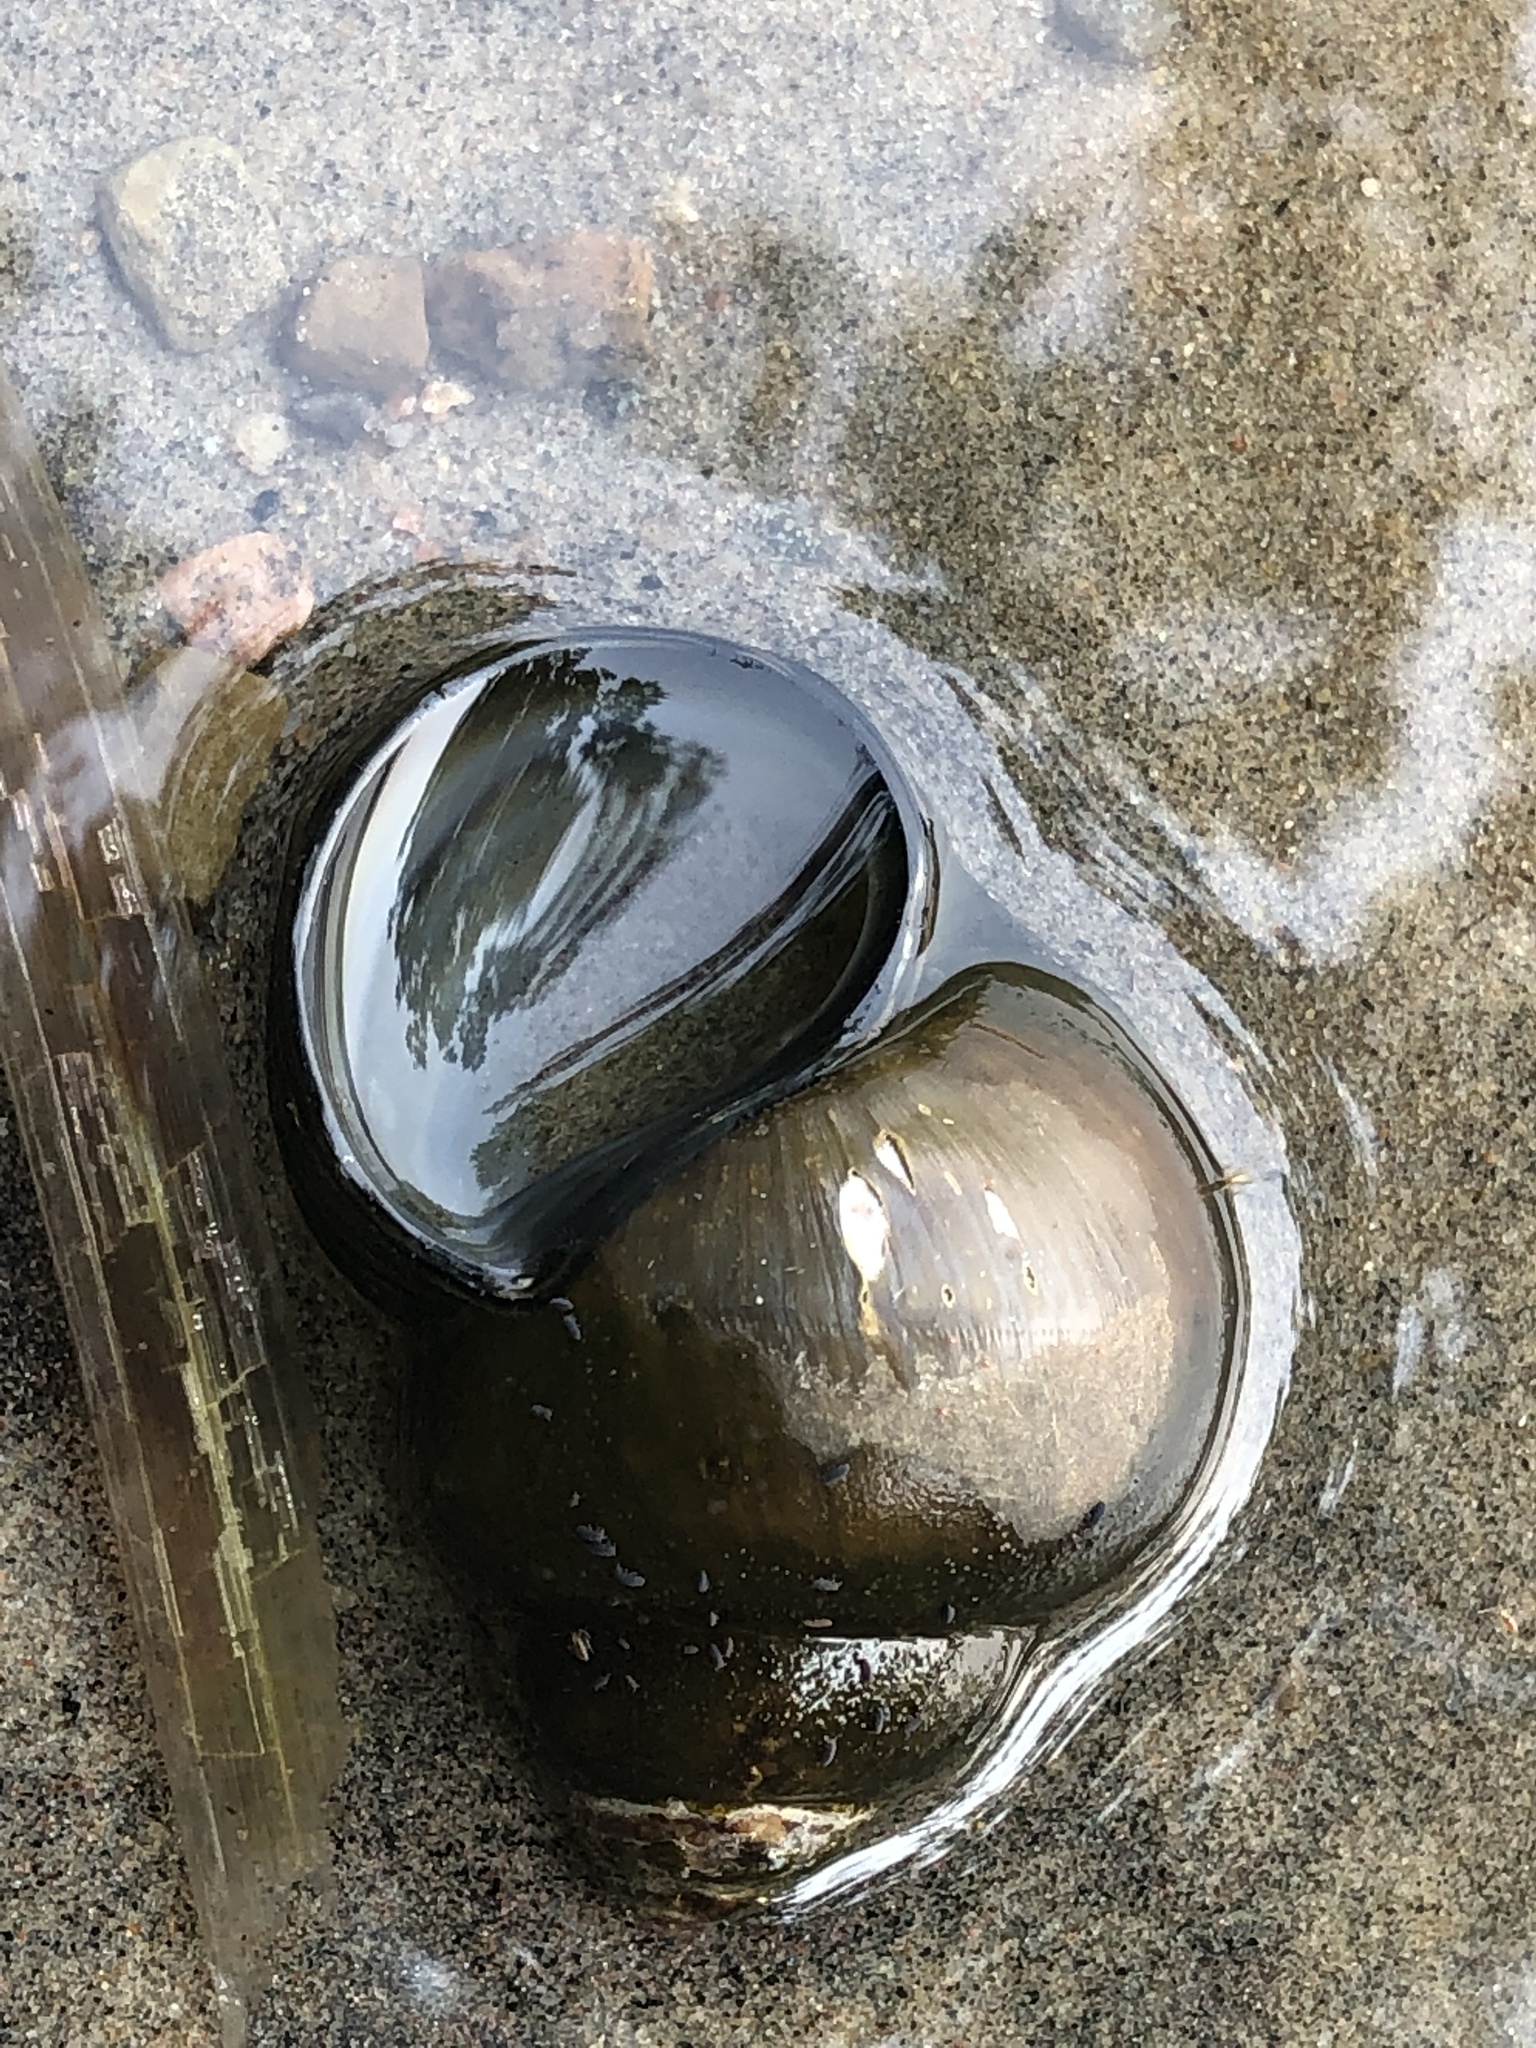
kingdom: Animalia
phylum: Mollusca
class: Gastropoda
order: Architaenioglossa
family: Viviparidae
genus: Cipangopaludina
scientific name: Cipangopaludina chinensis
